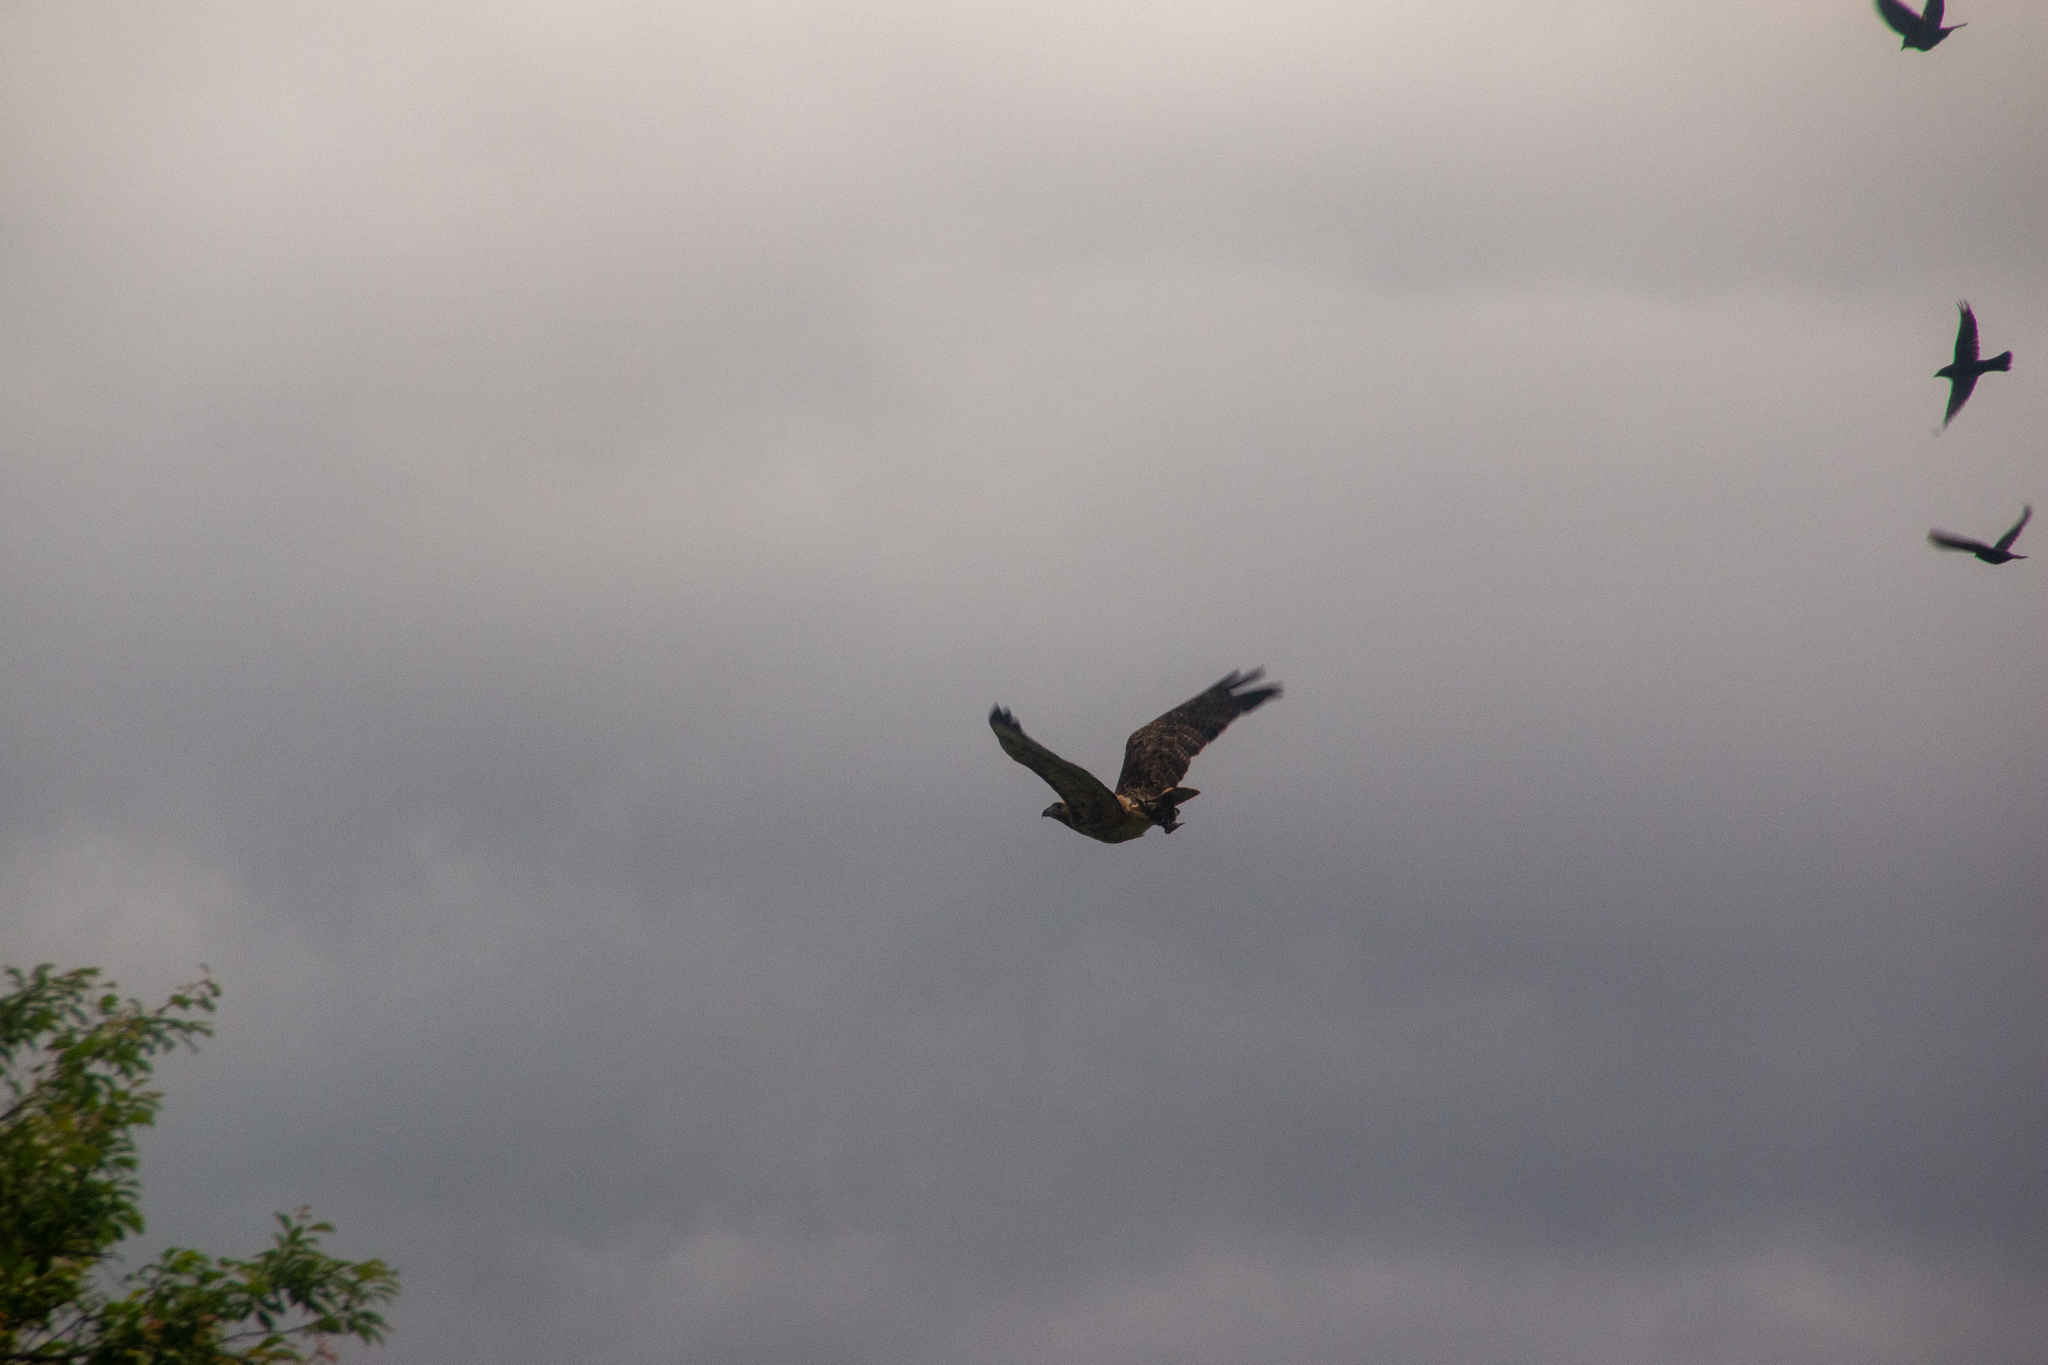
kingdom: Animalia
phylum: Chordata
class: Aves
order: Accipitriformes
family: Accipitridae
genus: Buteo
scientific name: Buteo jamaicensis
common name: Red-tailed hawk
